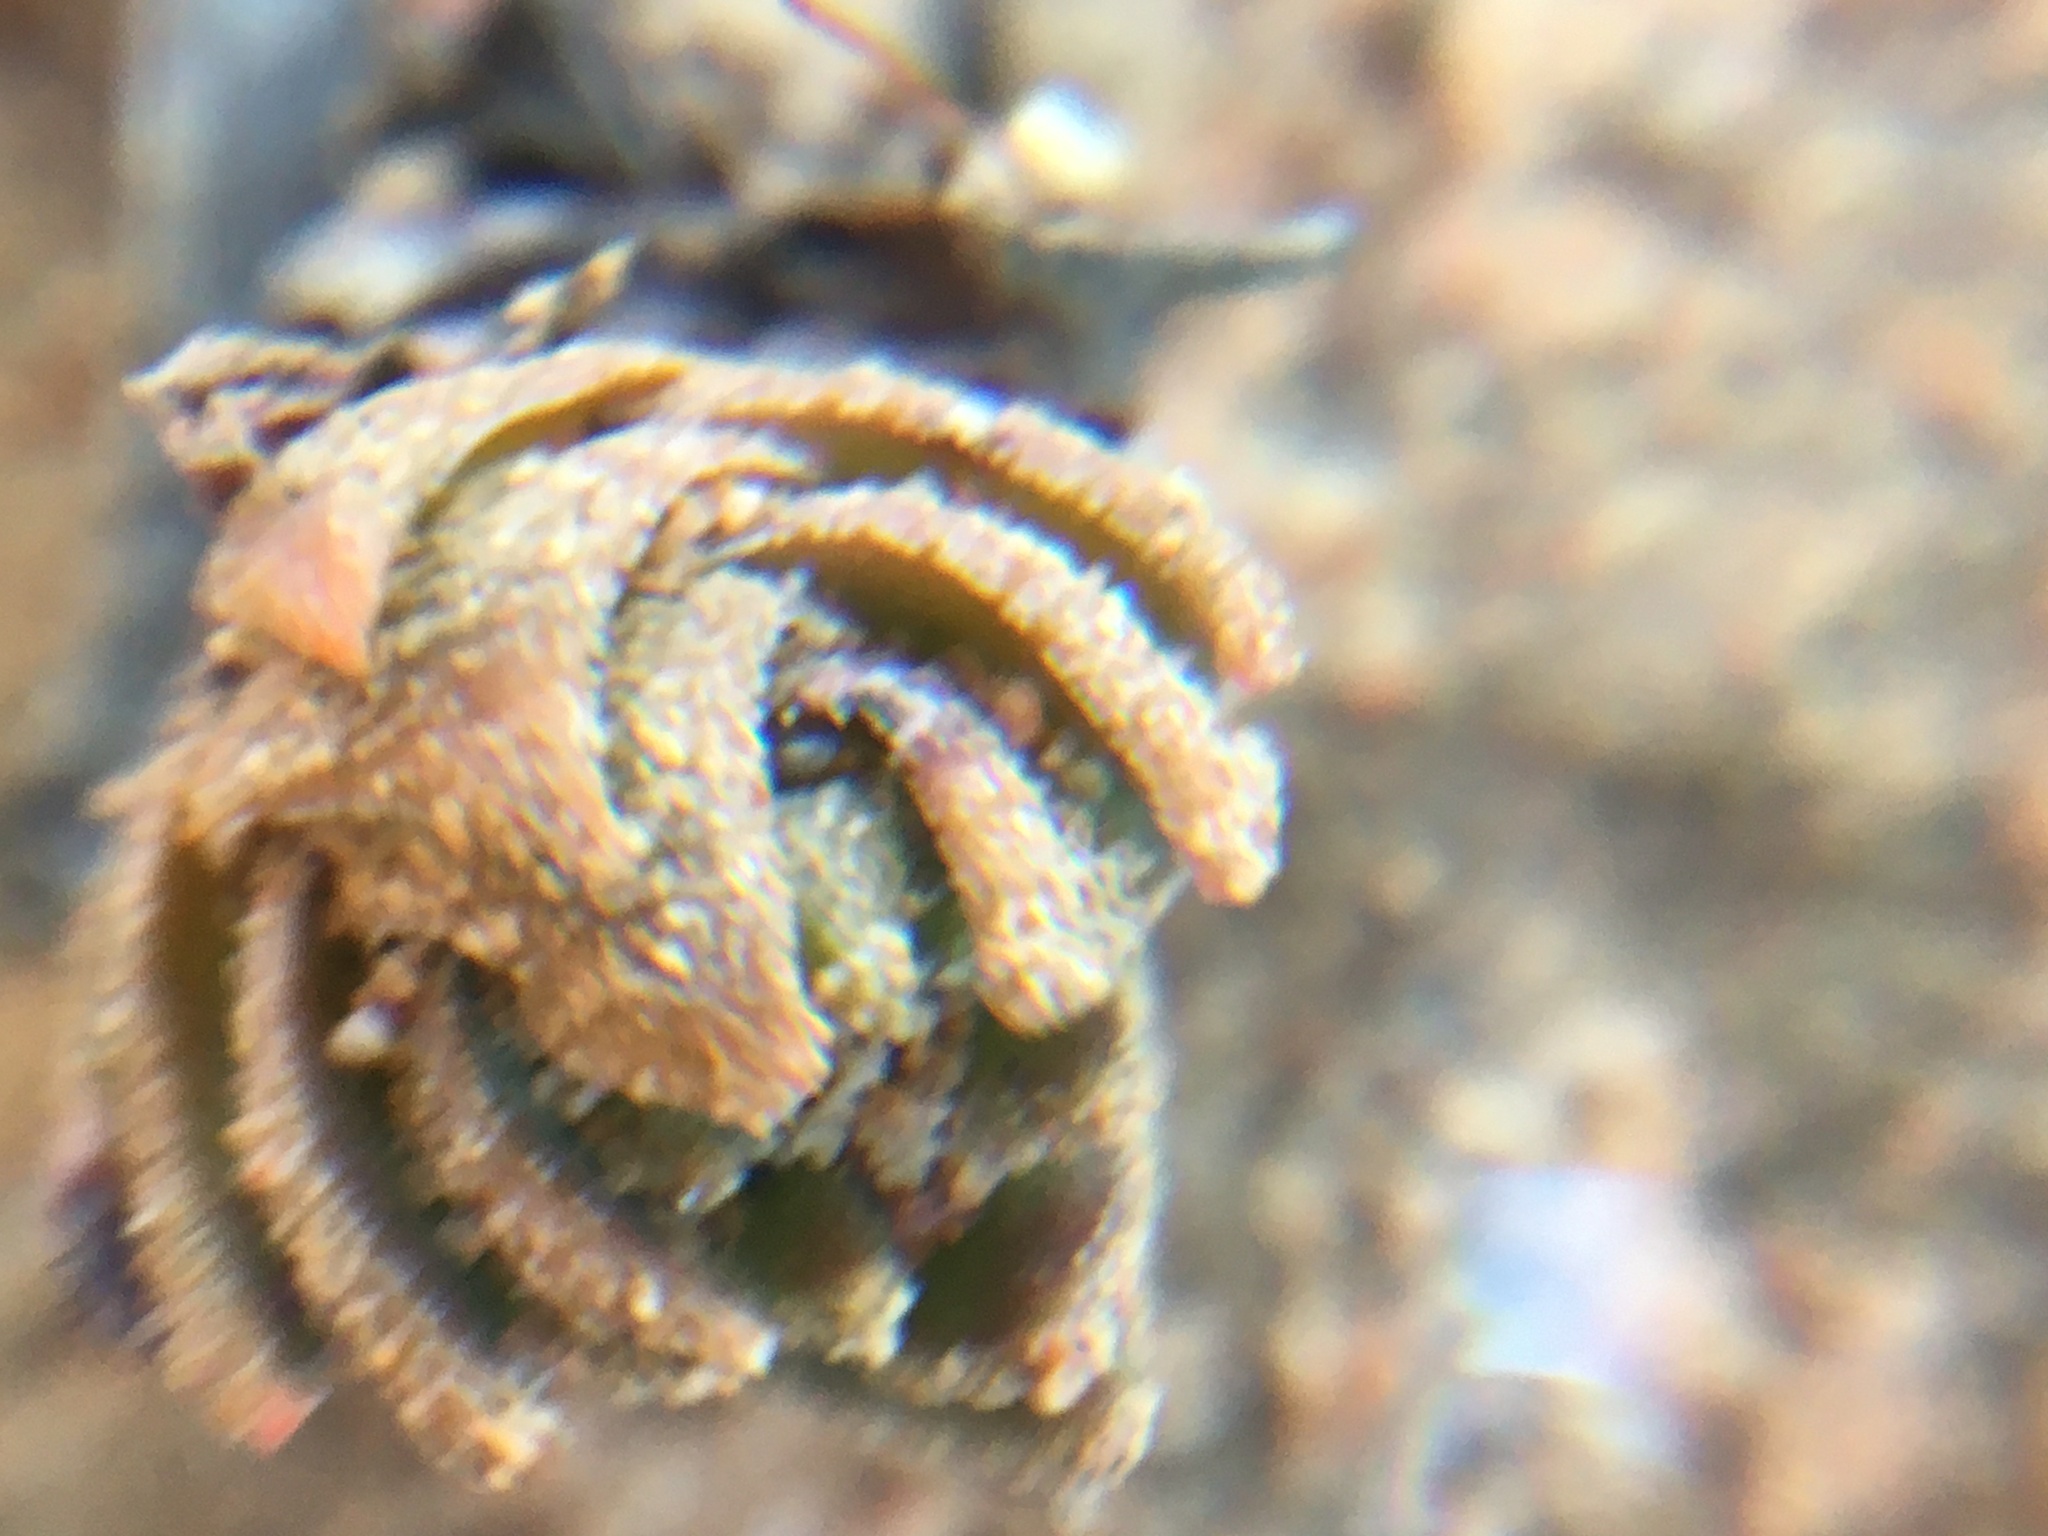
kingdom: Plantae
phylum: Tracheophyta
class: Magnoliopsida
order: Saxifragales
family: Crassulaceae
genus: Crassula
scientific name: Crassula alpestris
